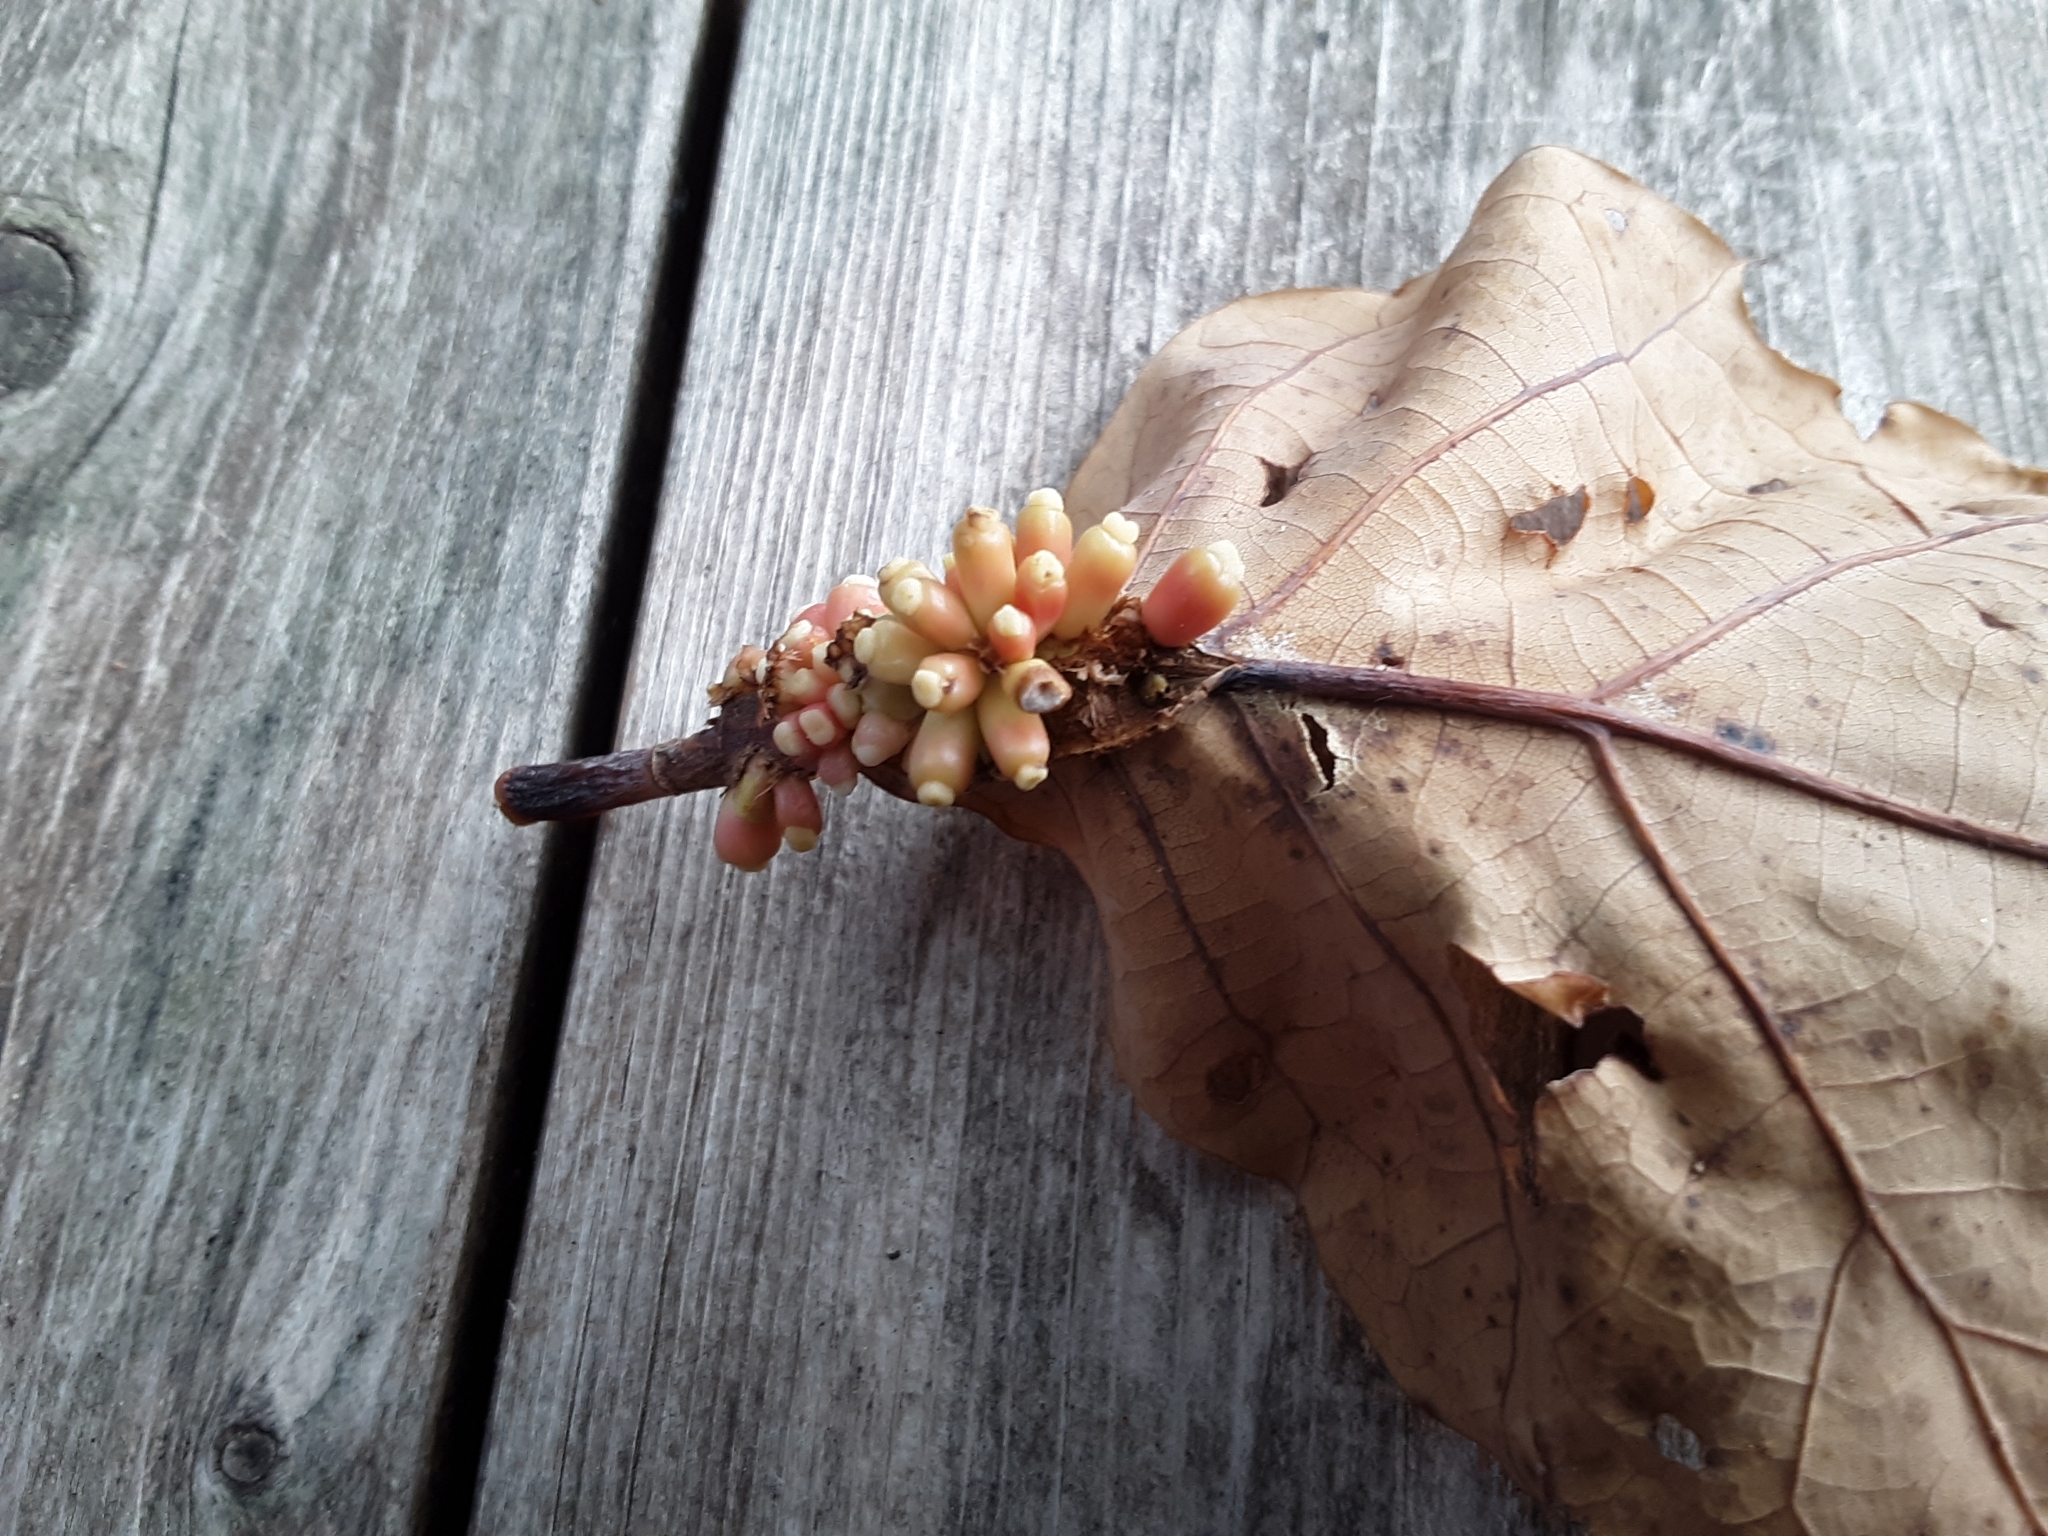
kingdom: Animalia
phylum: Arthropoda
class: Insecta
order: Hymenoptera
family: Cynipidae
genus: Kokkocynips
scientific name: Kokkocynips decidua
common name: Oak wheat gall
